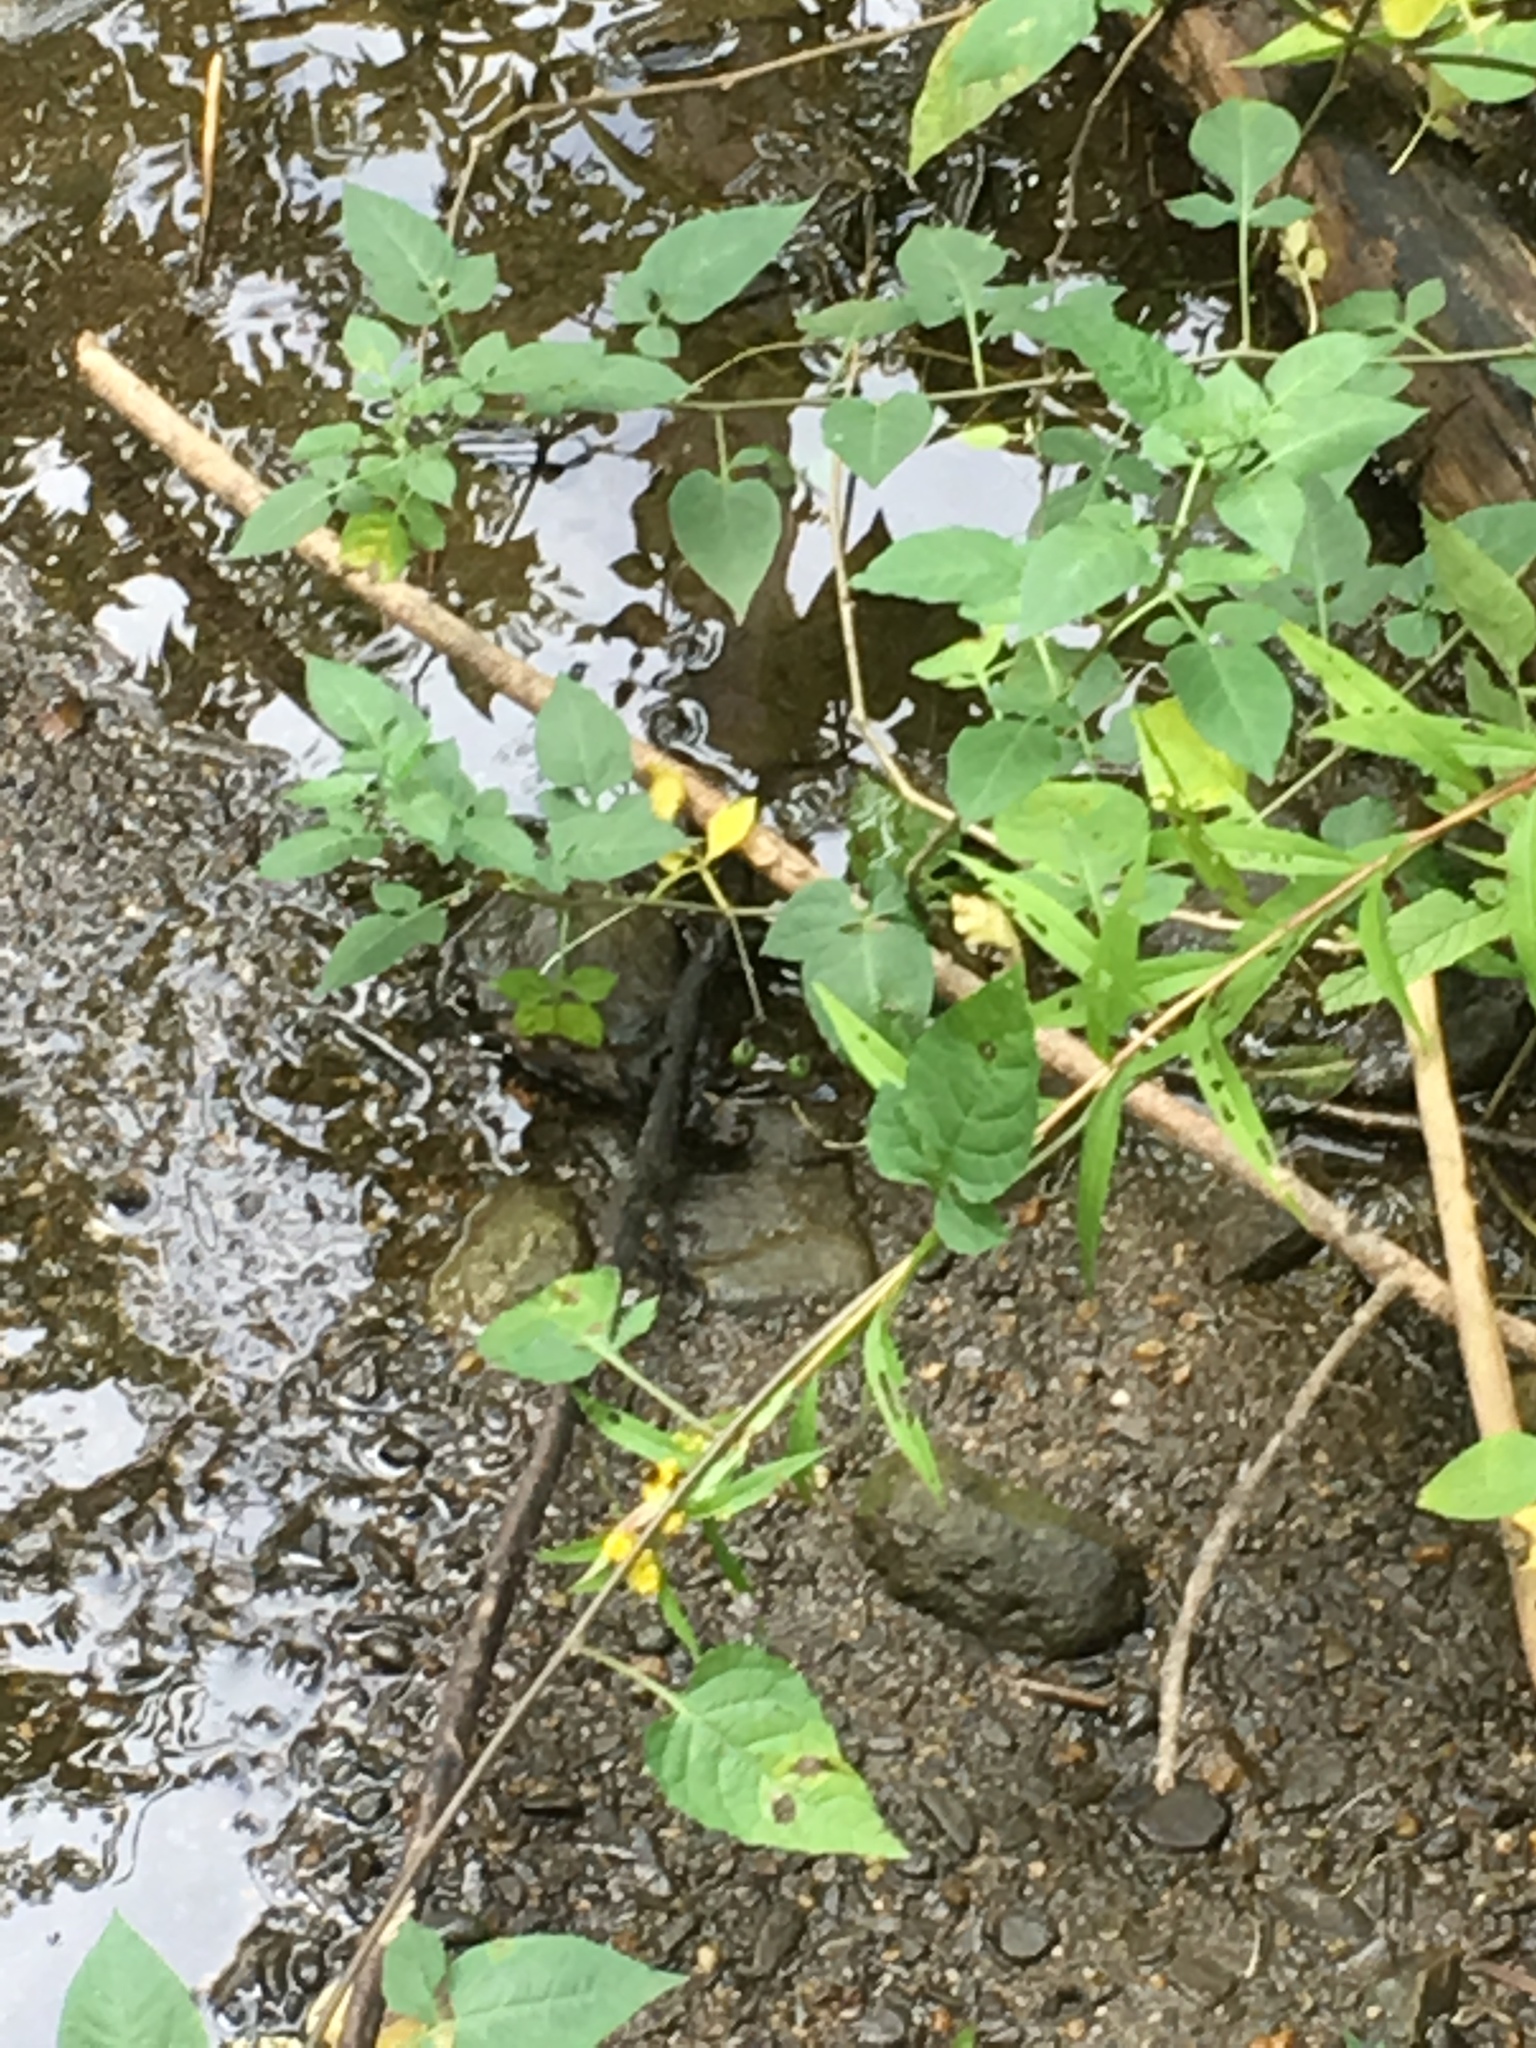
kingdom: Plantae
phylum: Tracheophyta
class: Magnoliopsida
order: Solanales
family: Solanaceae
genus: Solanum
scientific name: Solanum dulcamara
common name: Climbing nightshade
